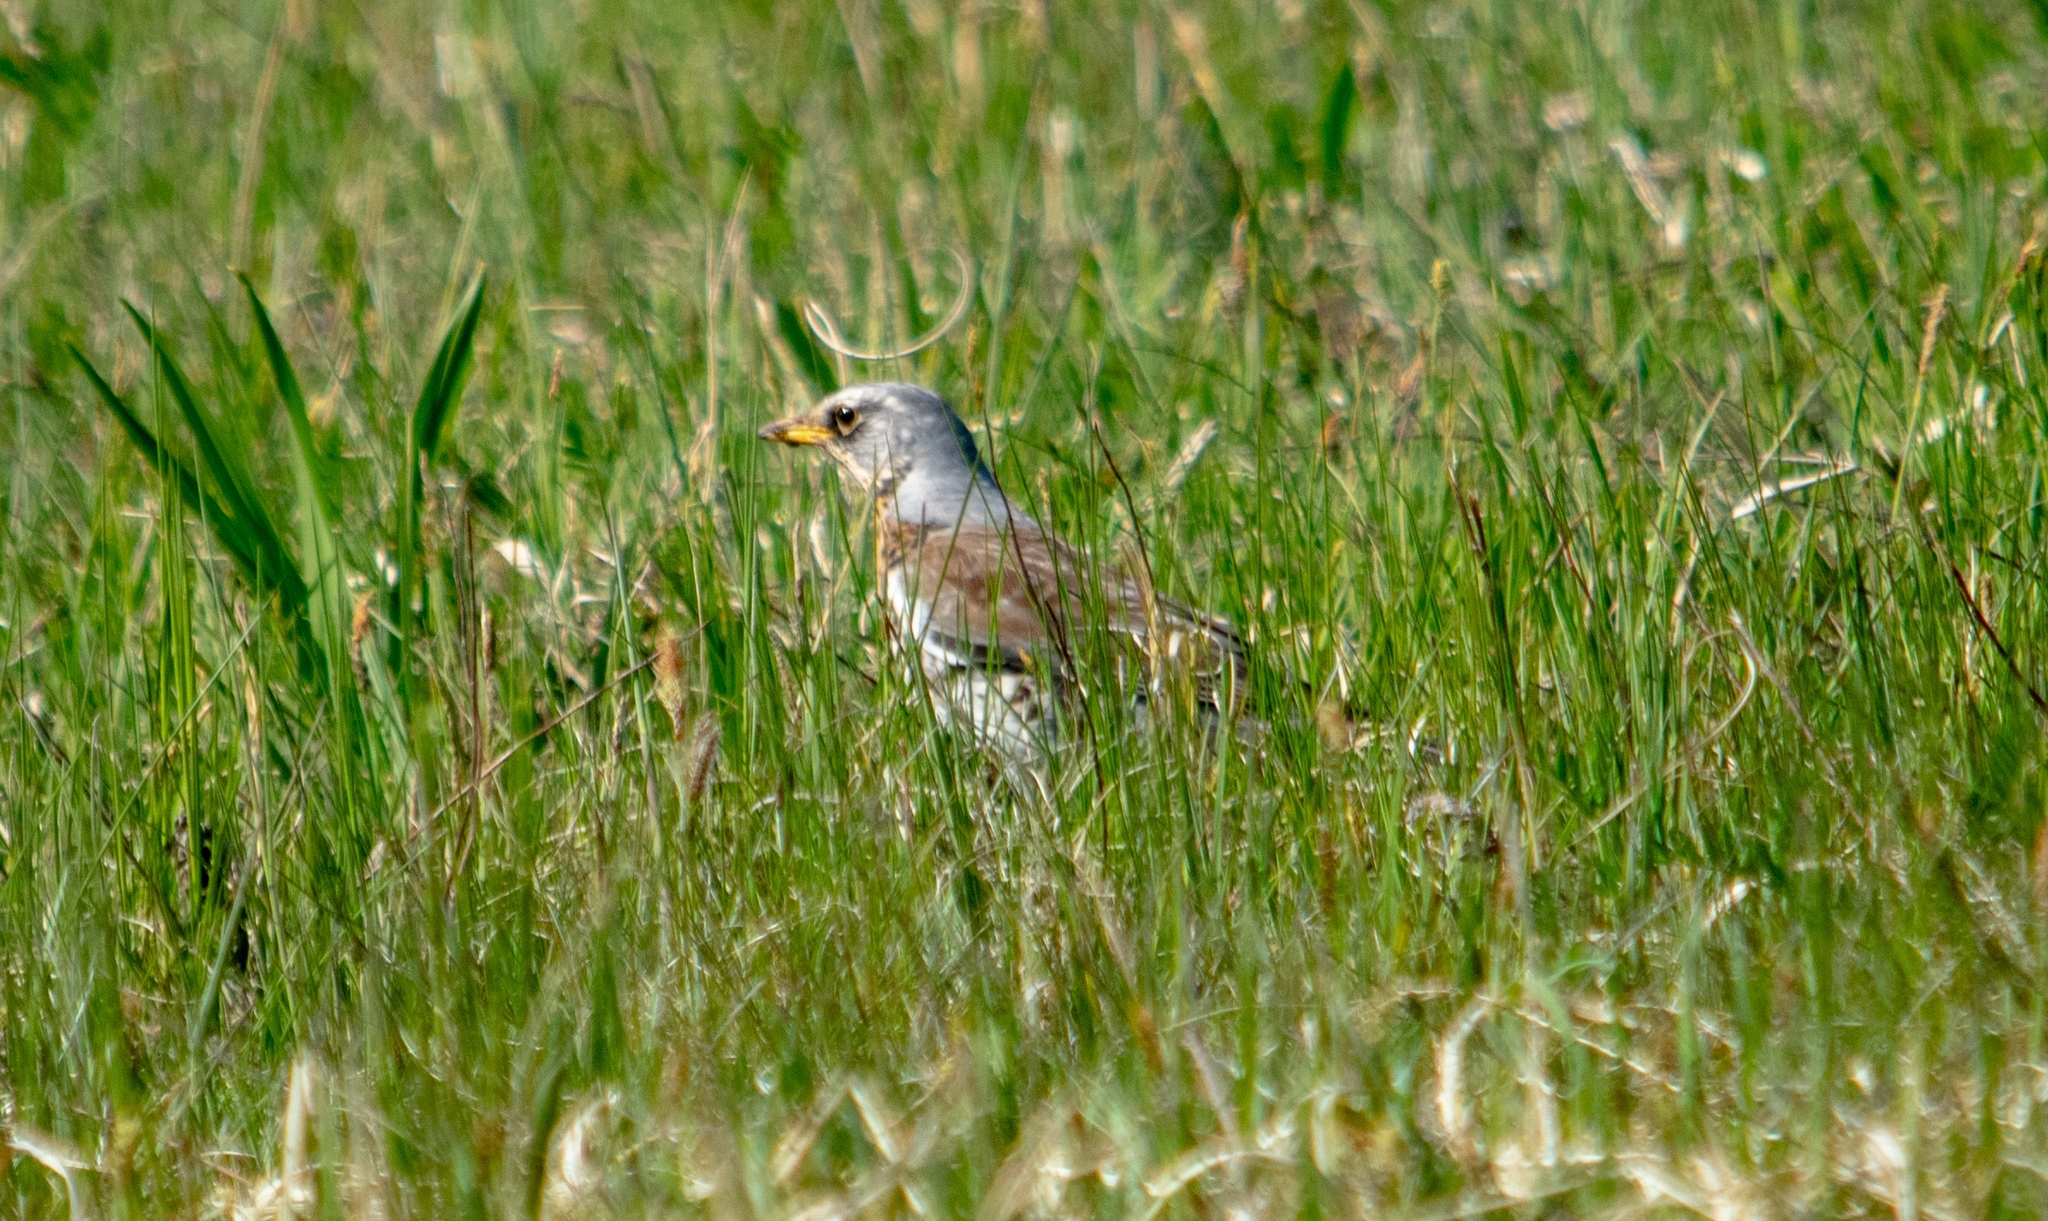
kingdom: Animalia
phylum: Chordata
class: Aves
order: Passeriformes
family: Turdidae
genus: Turdus
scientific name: Turdus pilaris
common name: Fieldfare
